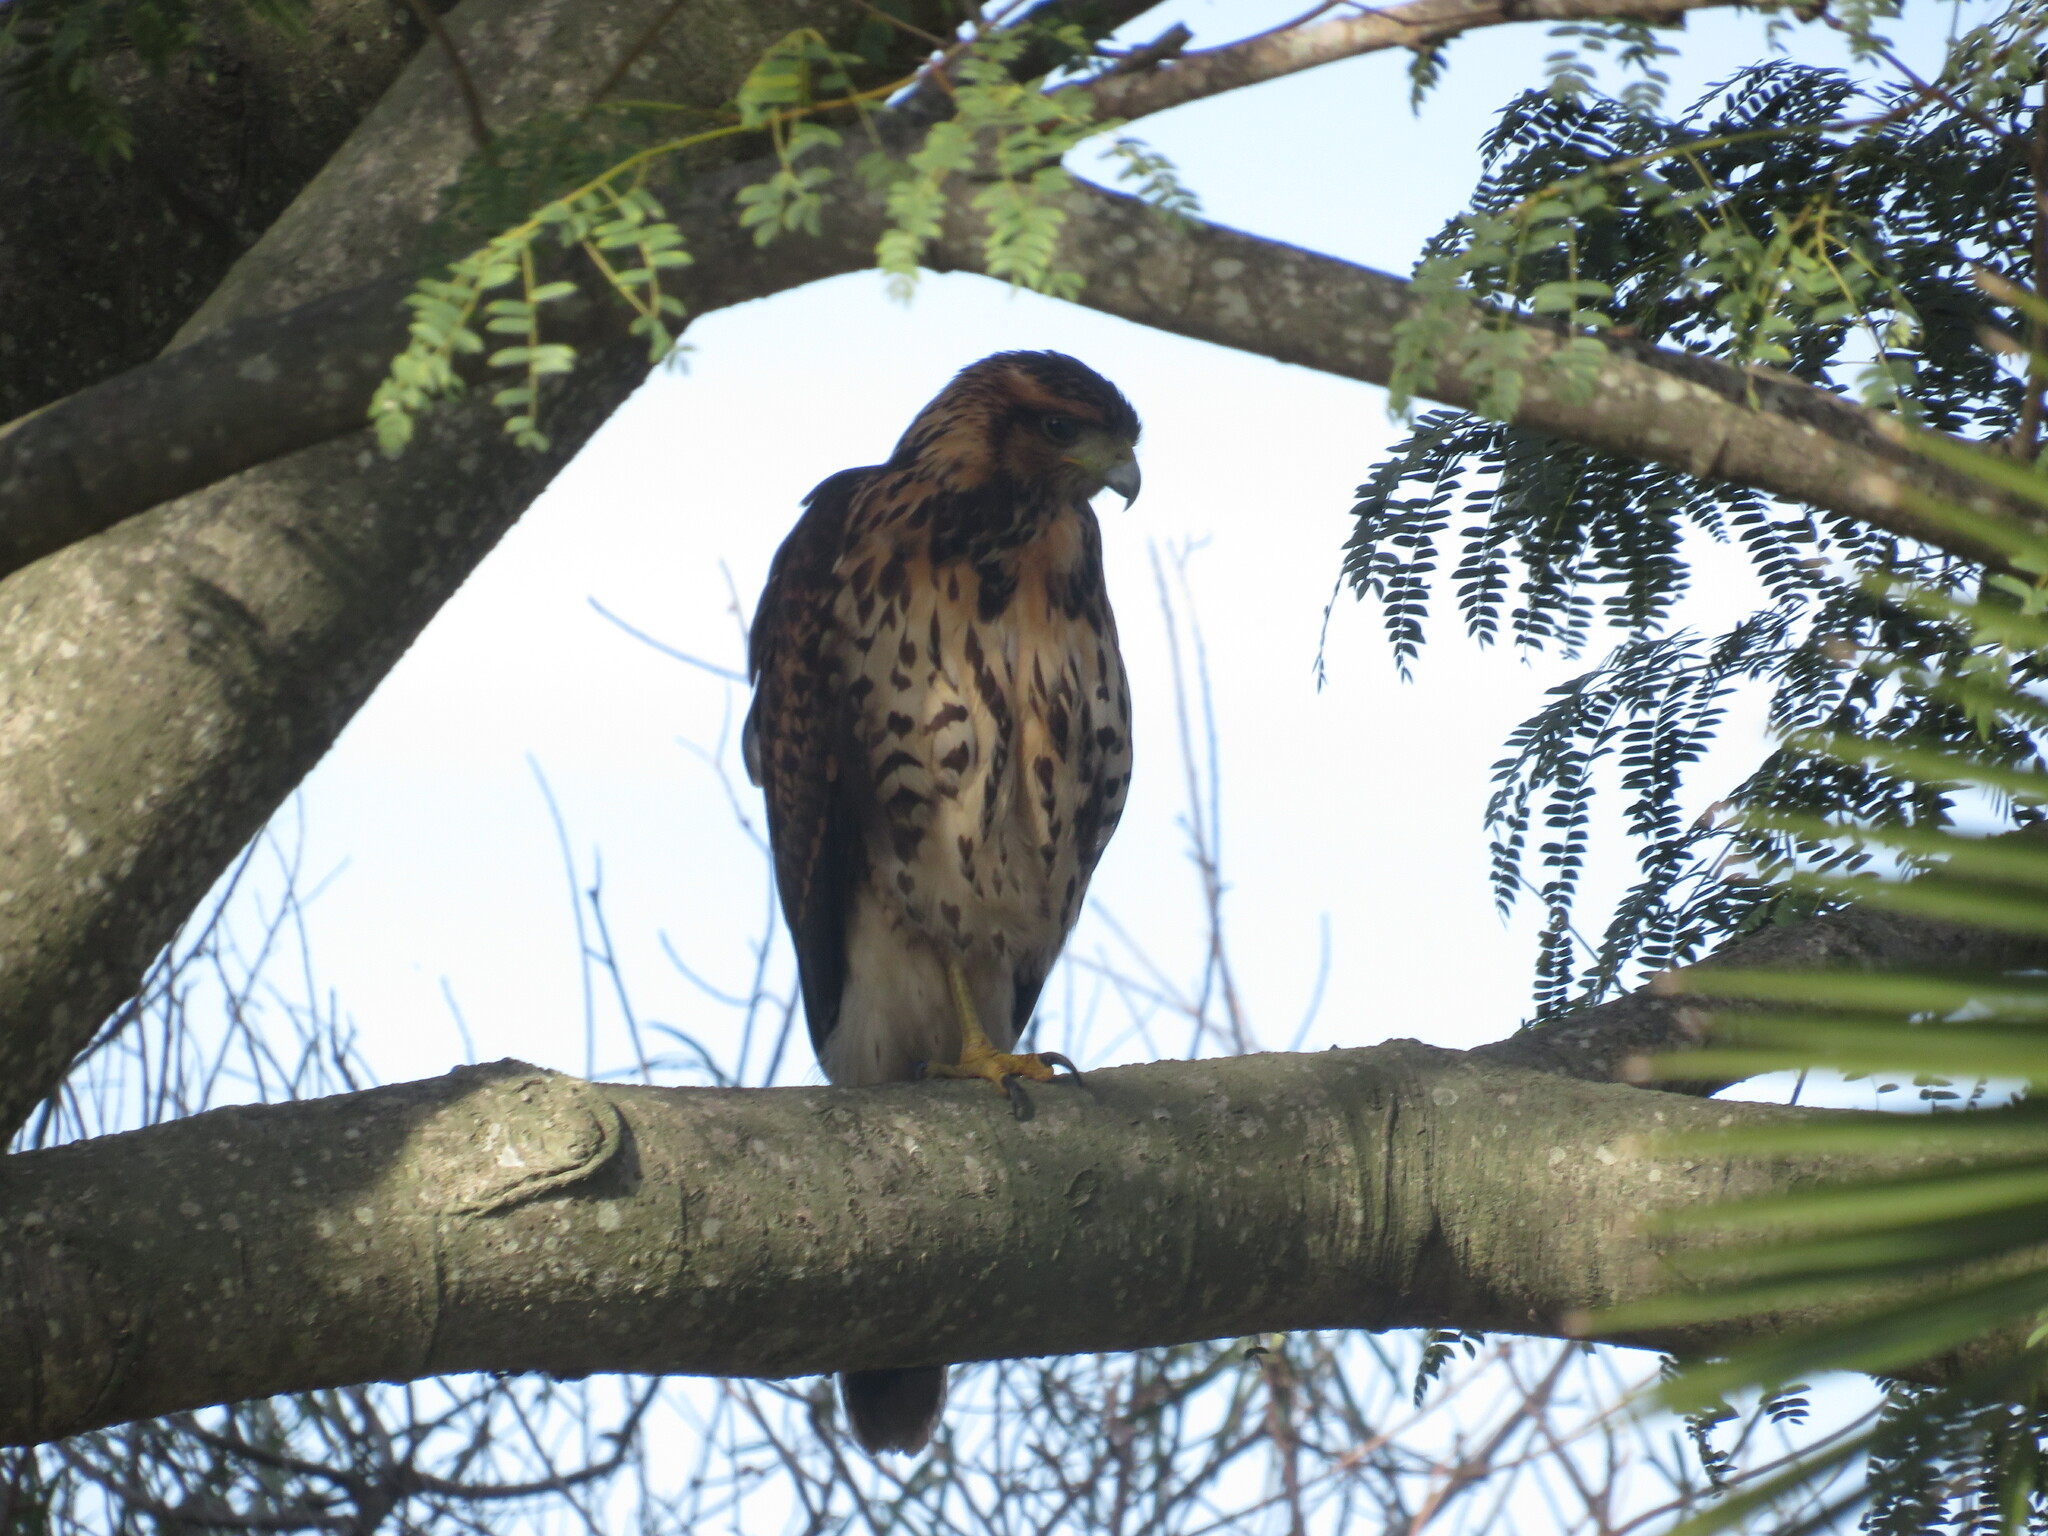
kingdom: Animalia
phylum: Chordata
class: Aves
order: Accipitriformes
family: Accipitridae
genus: Parabuteo
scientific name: Parabuteo unicinctus
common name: Harris's hawk
